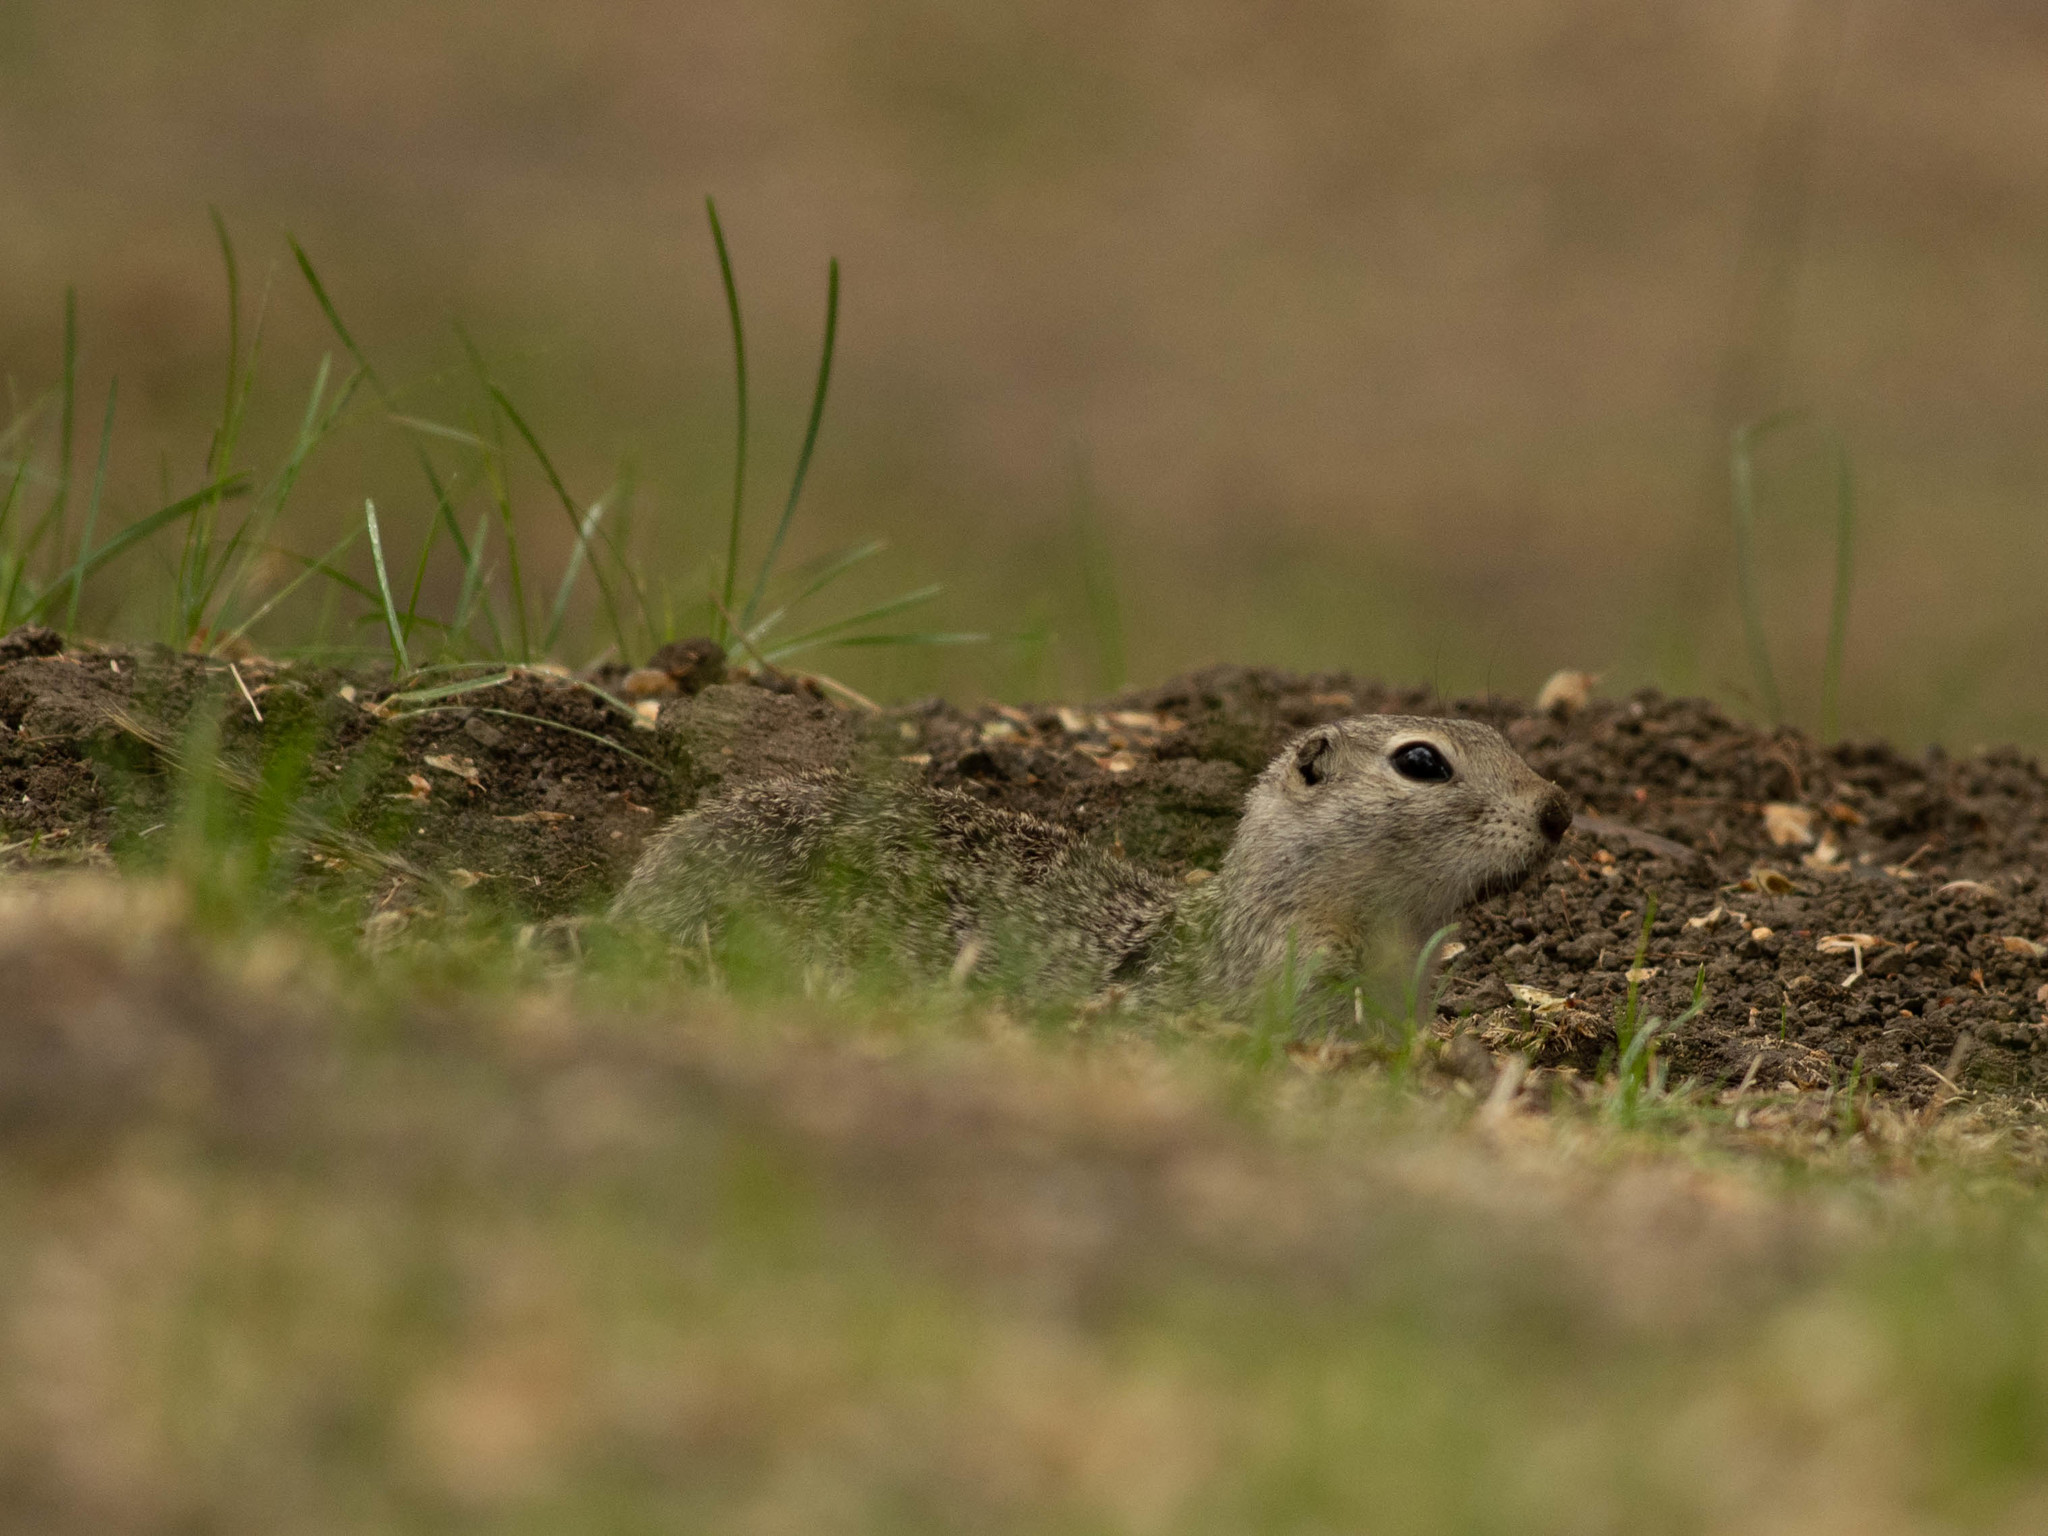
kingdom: Animalia
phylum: Chordata
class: Mammalia
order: Rodentia
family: Sciuridae
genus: Urocitellus
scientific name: Urocitellus richardsonii
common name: Richardson's ground squirrel
